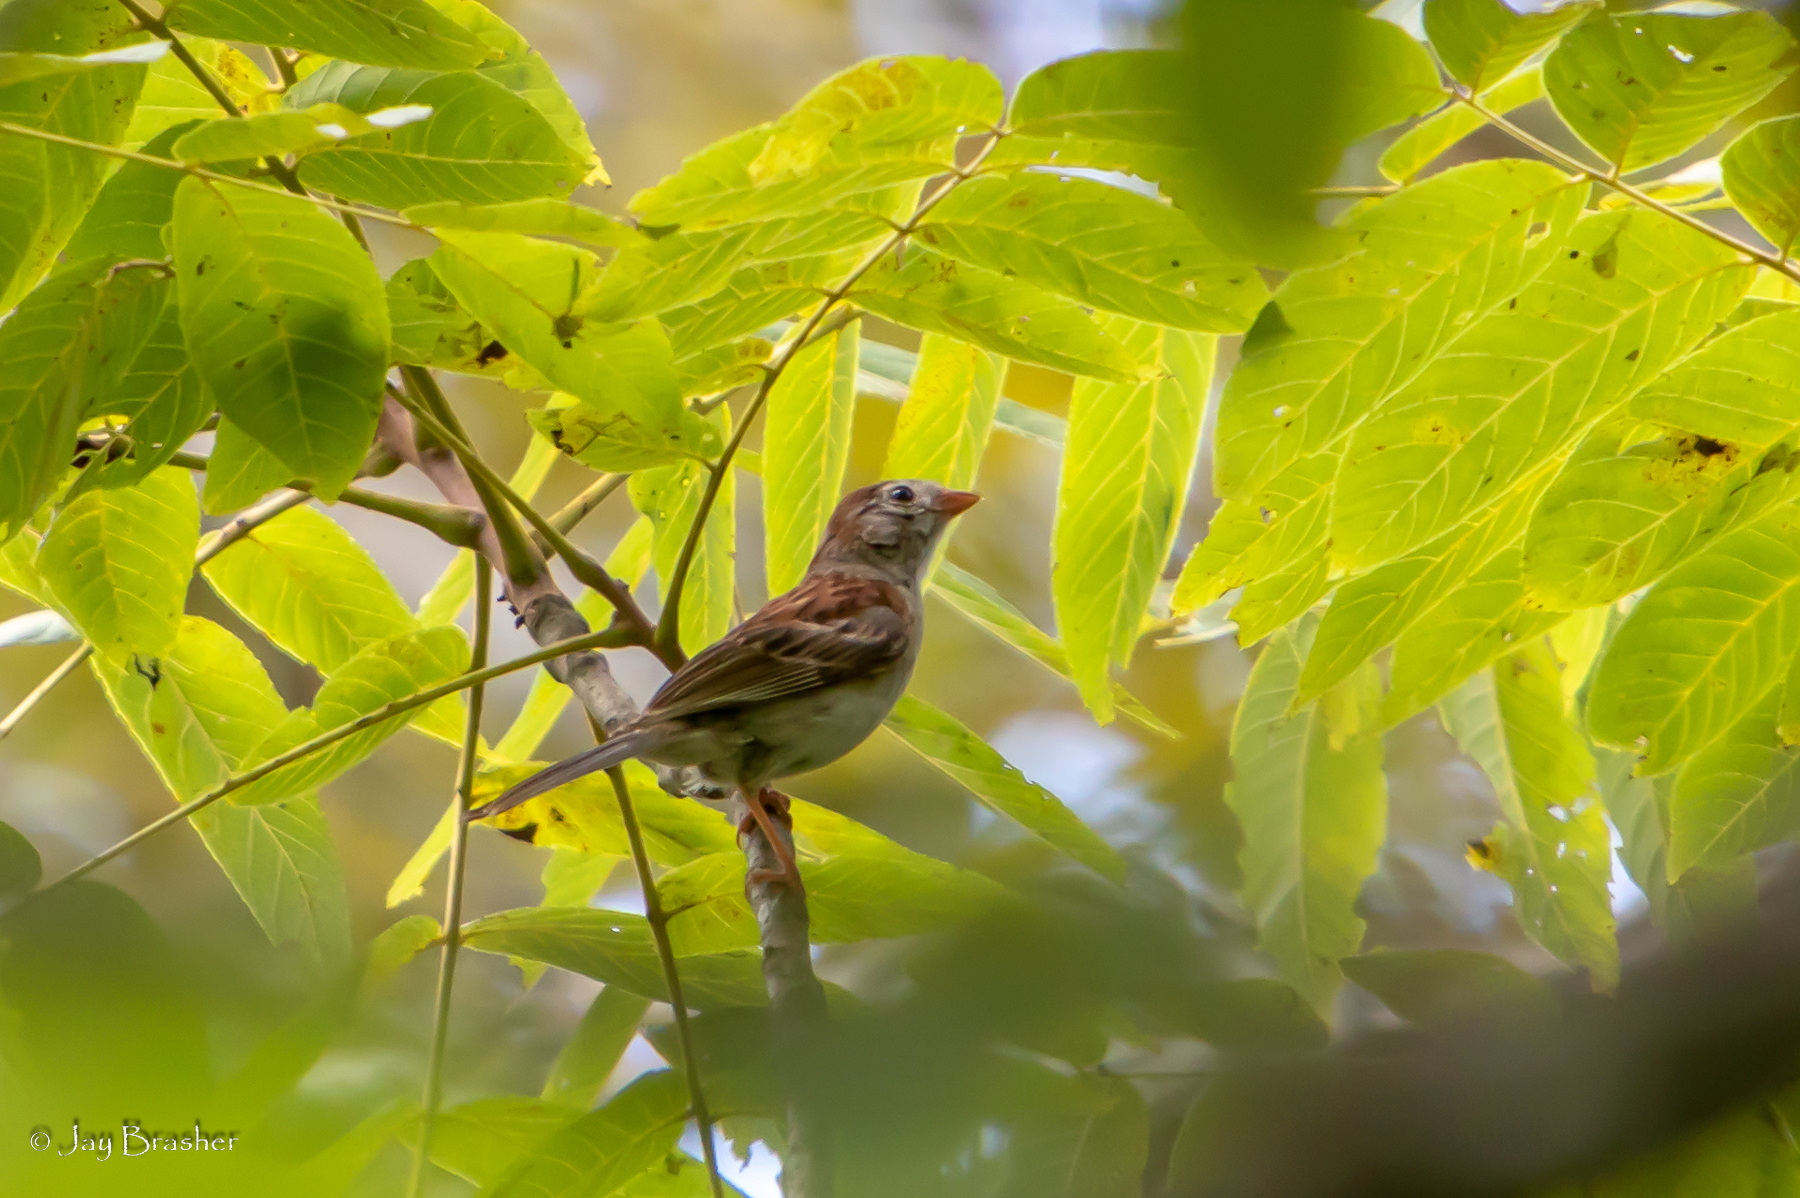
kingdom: Animalia
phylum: Chordata
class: Aves
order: Passeriformes
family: Passerellidae
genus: Spizella
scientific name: Spizella pusilla
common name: Field sparrow
